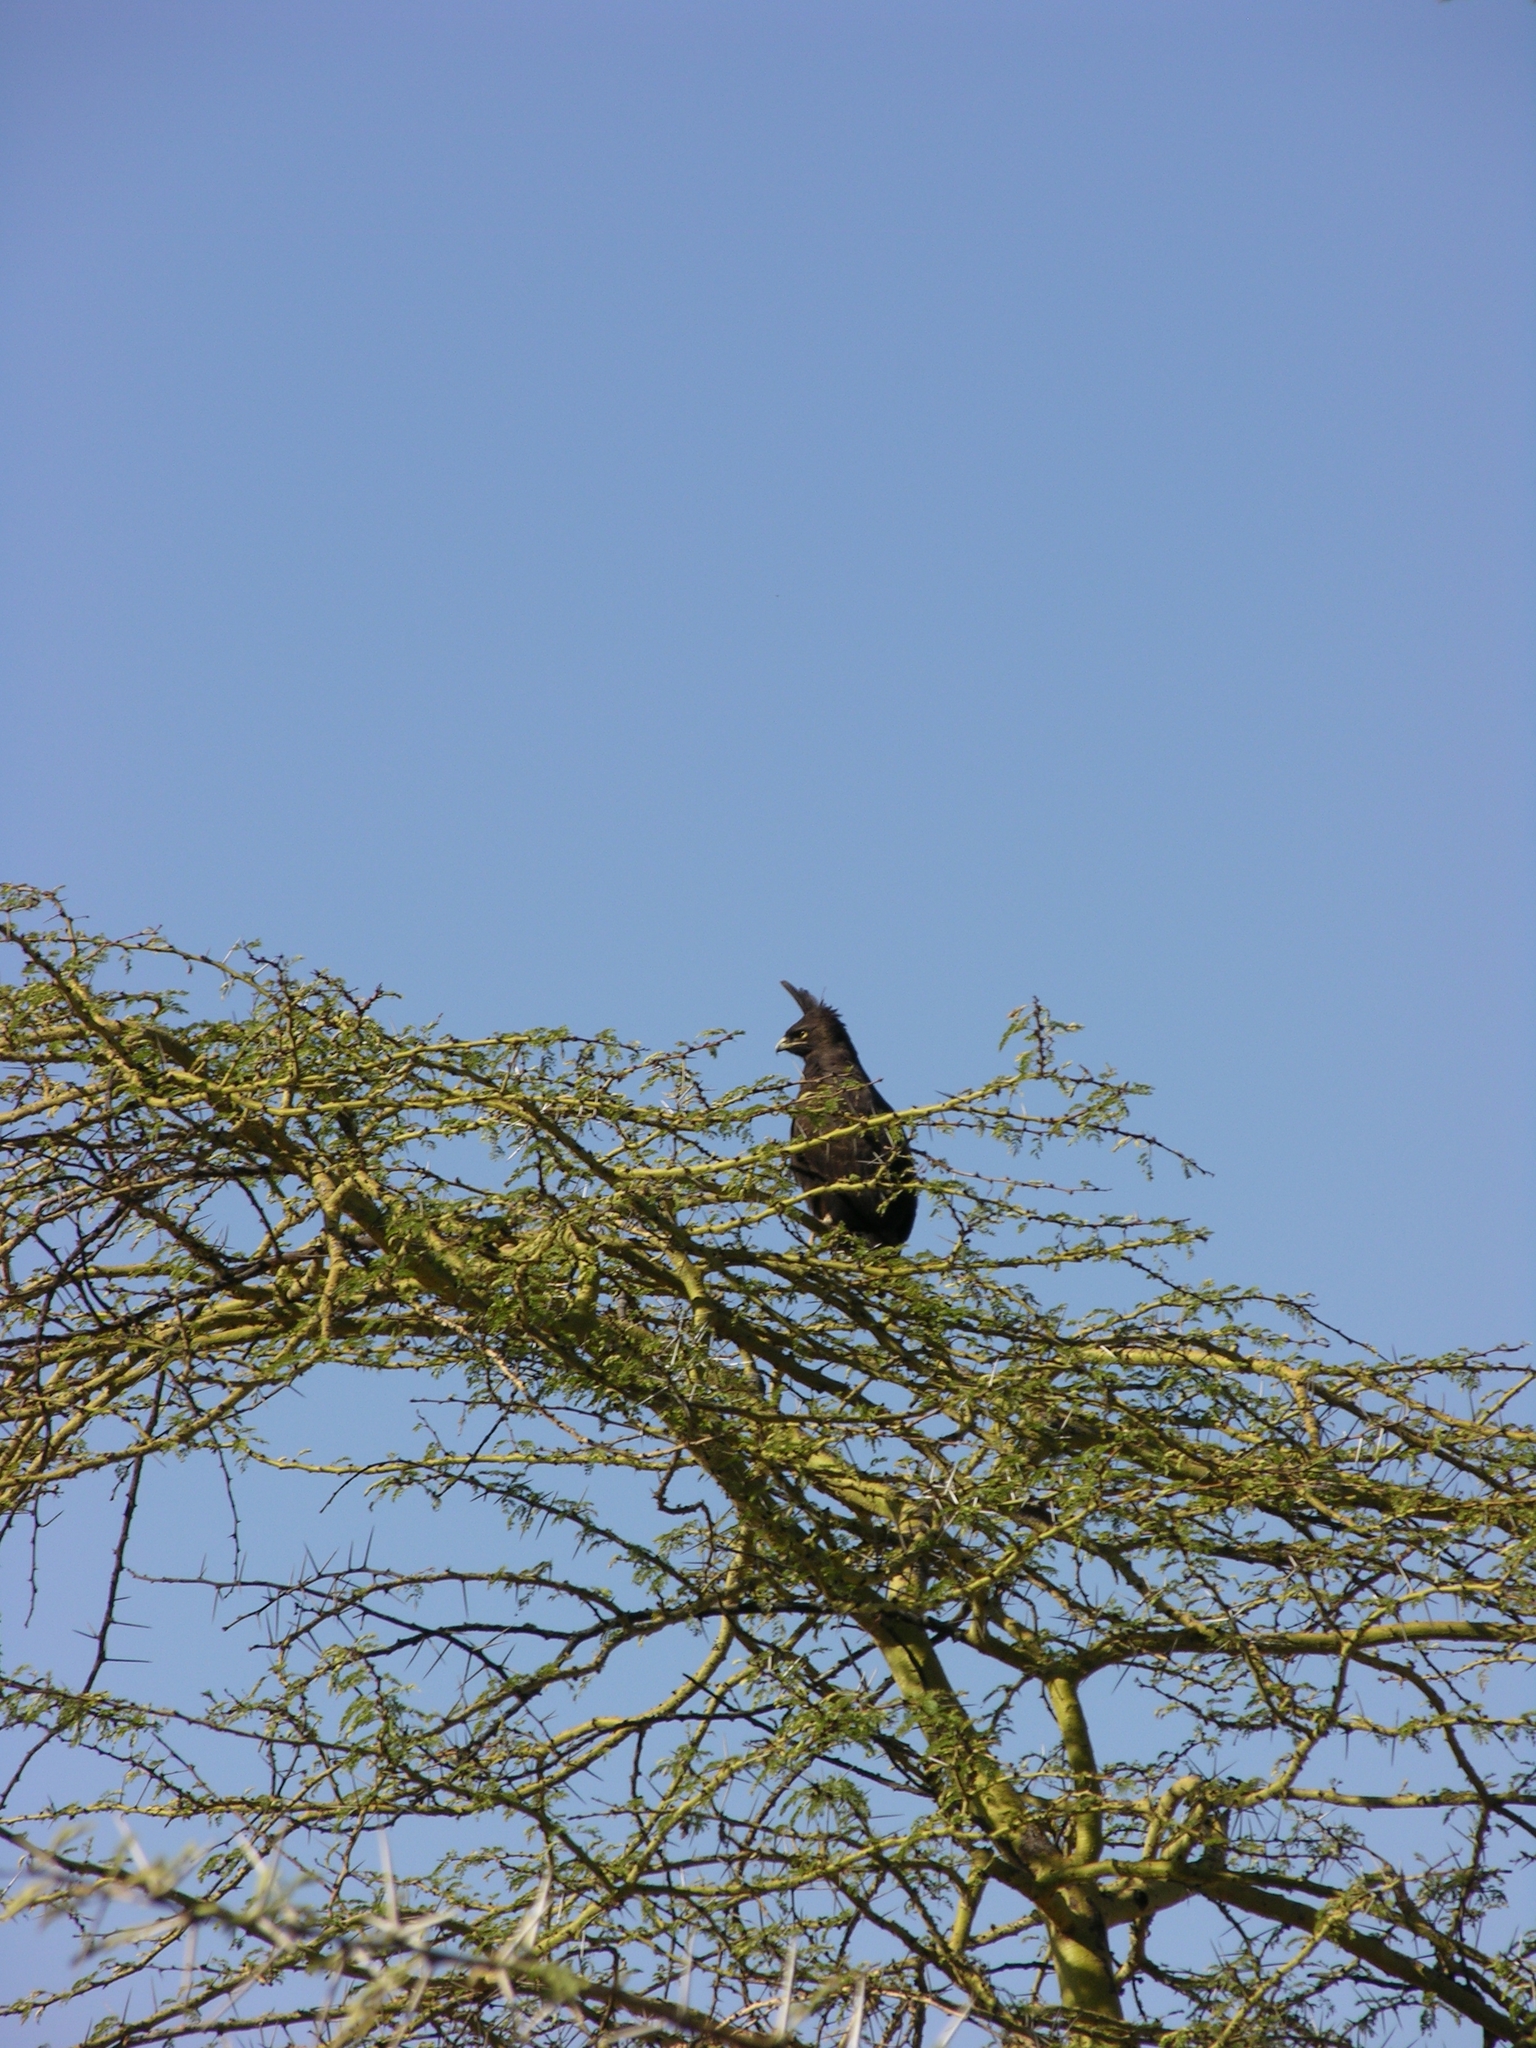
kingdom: Animalia
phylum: Chordata
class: Aves
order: Accipitriformes
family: Accipitridae
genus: Lophaetus
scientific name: Lophaetus occipitalis
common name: Long-crested eagle
